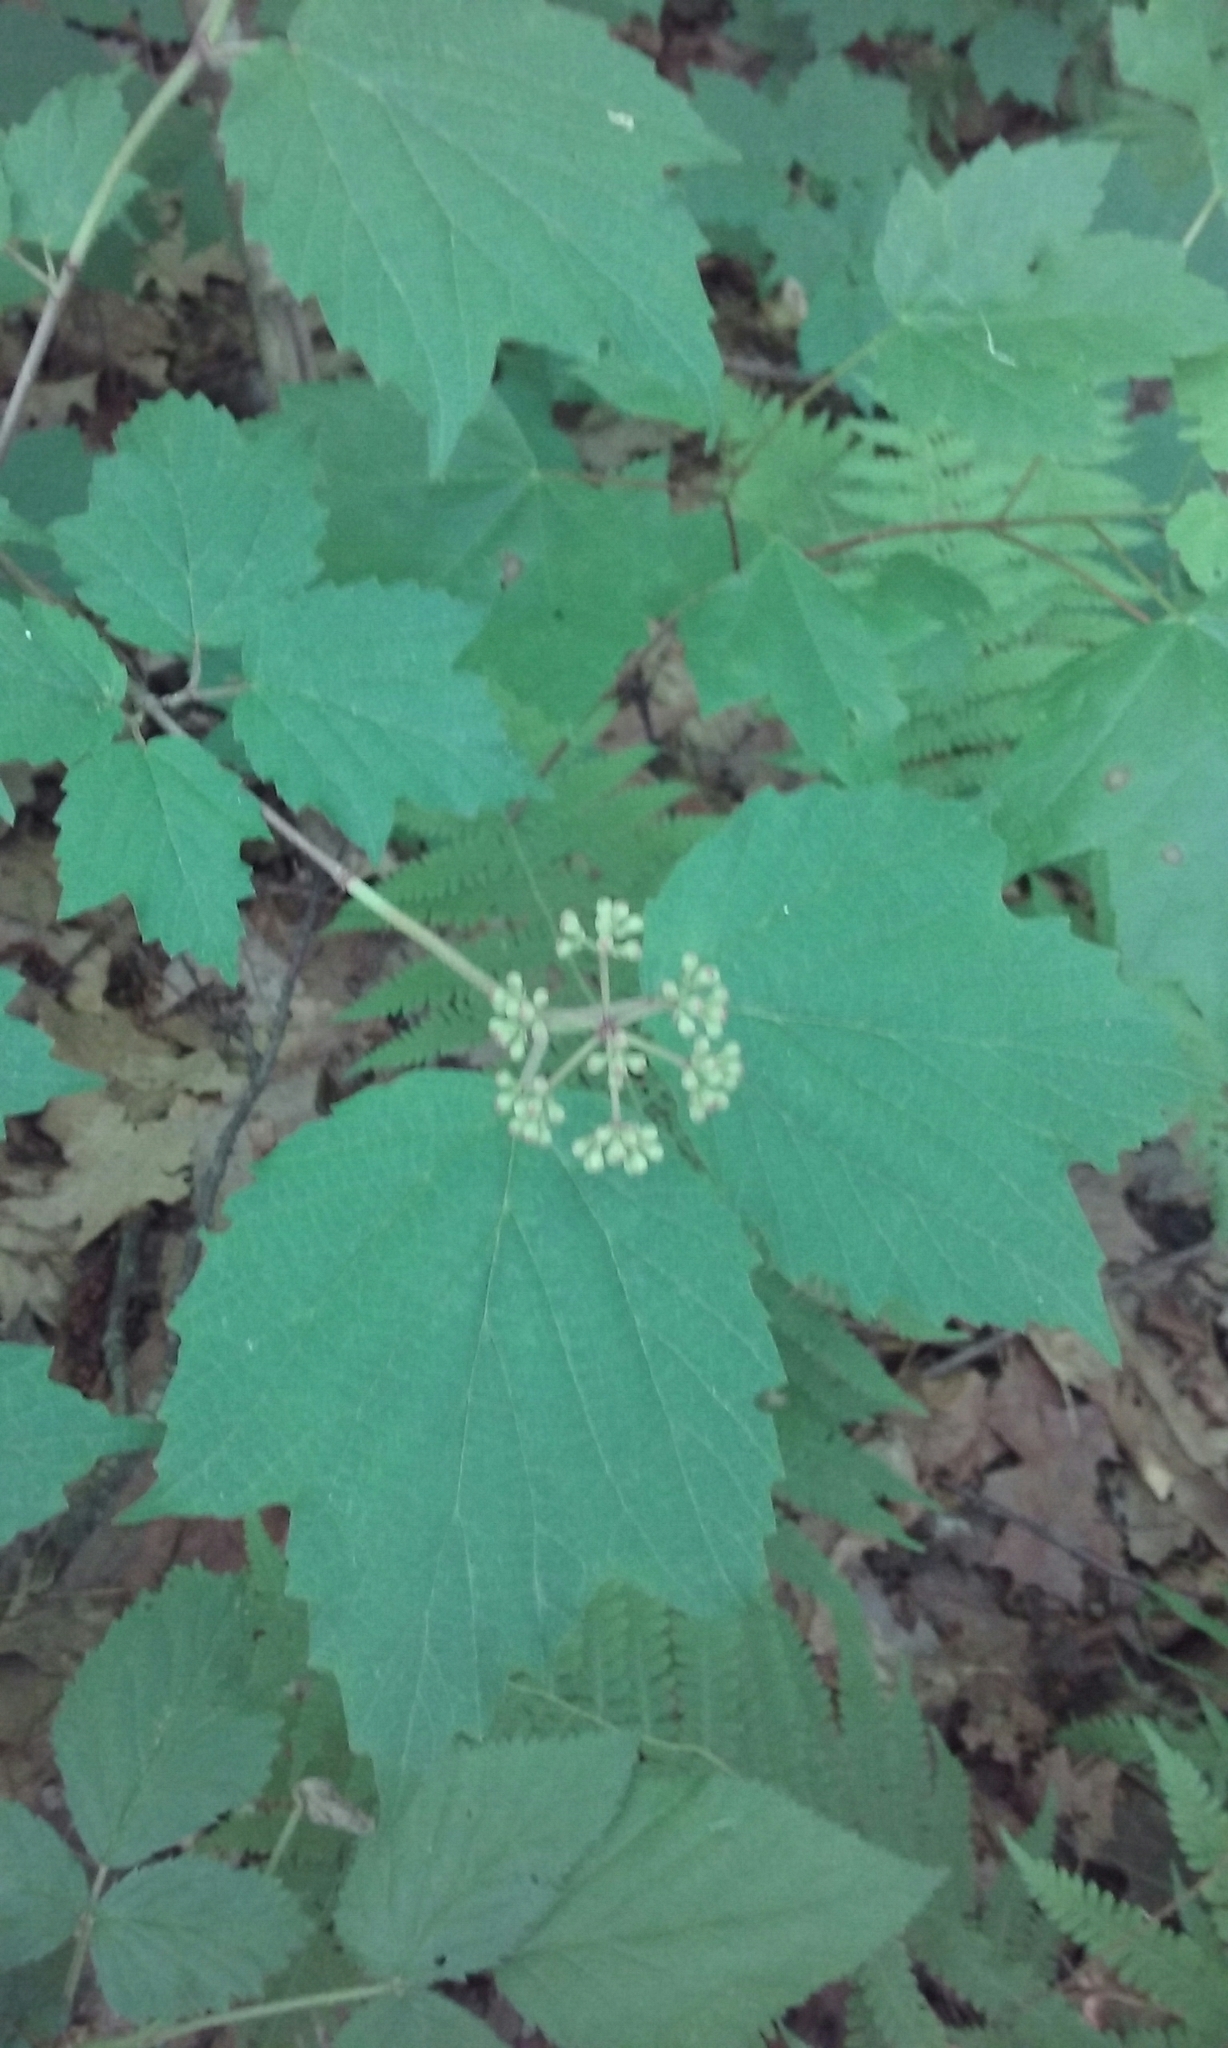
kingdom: Plantae
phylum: Tracheophyta
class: Magnoliopsida
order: Dipsacales
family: Viburnaceae
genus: Viburnum
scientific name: Viburnum acerifolium
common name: Dockmackie
